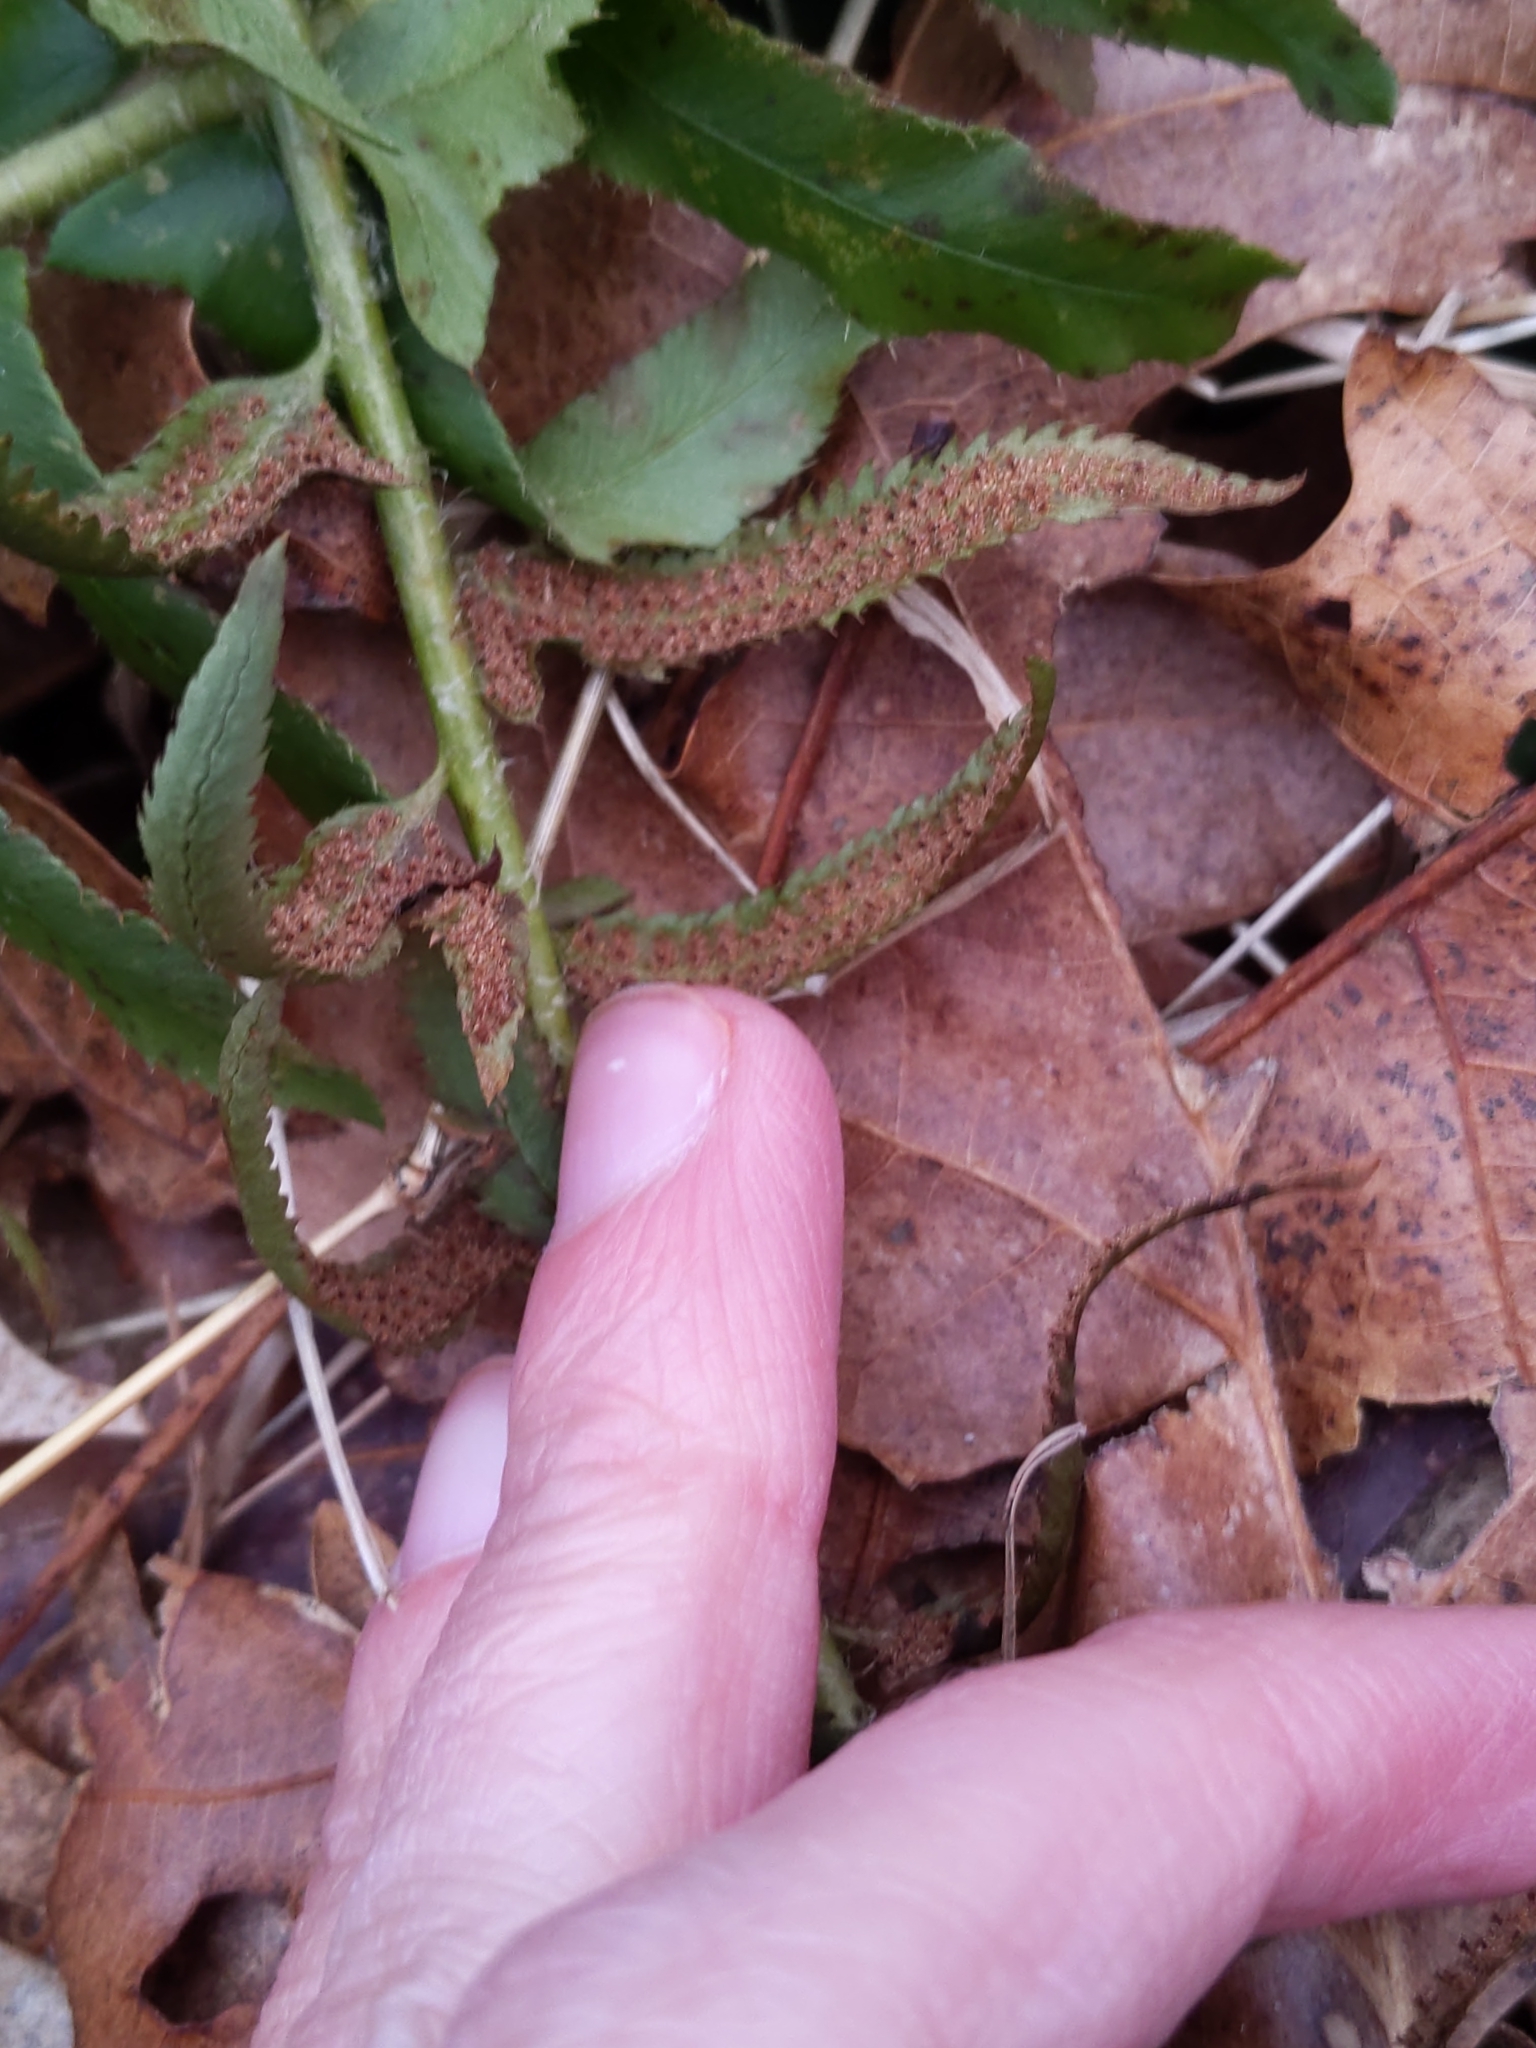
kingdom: Plantae
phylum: Tracheophyta
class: Polypodiopsida
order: Polypodiales
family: Dryopteridaceae
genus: Polystichum
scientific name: Polystichum acrostichoides
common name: Christmas fern
